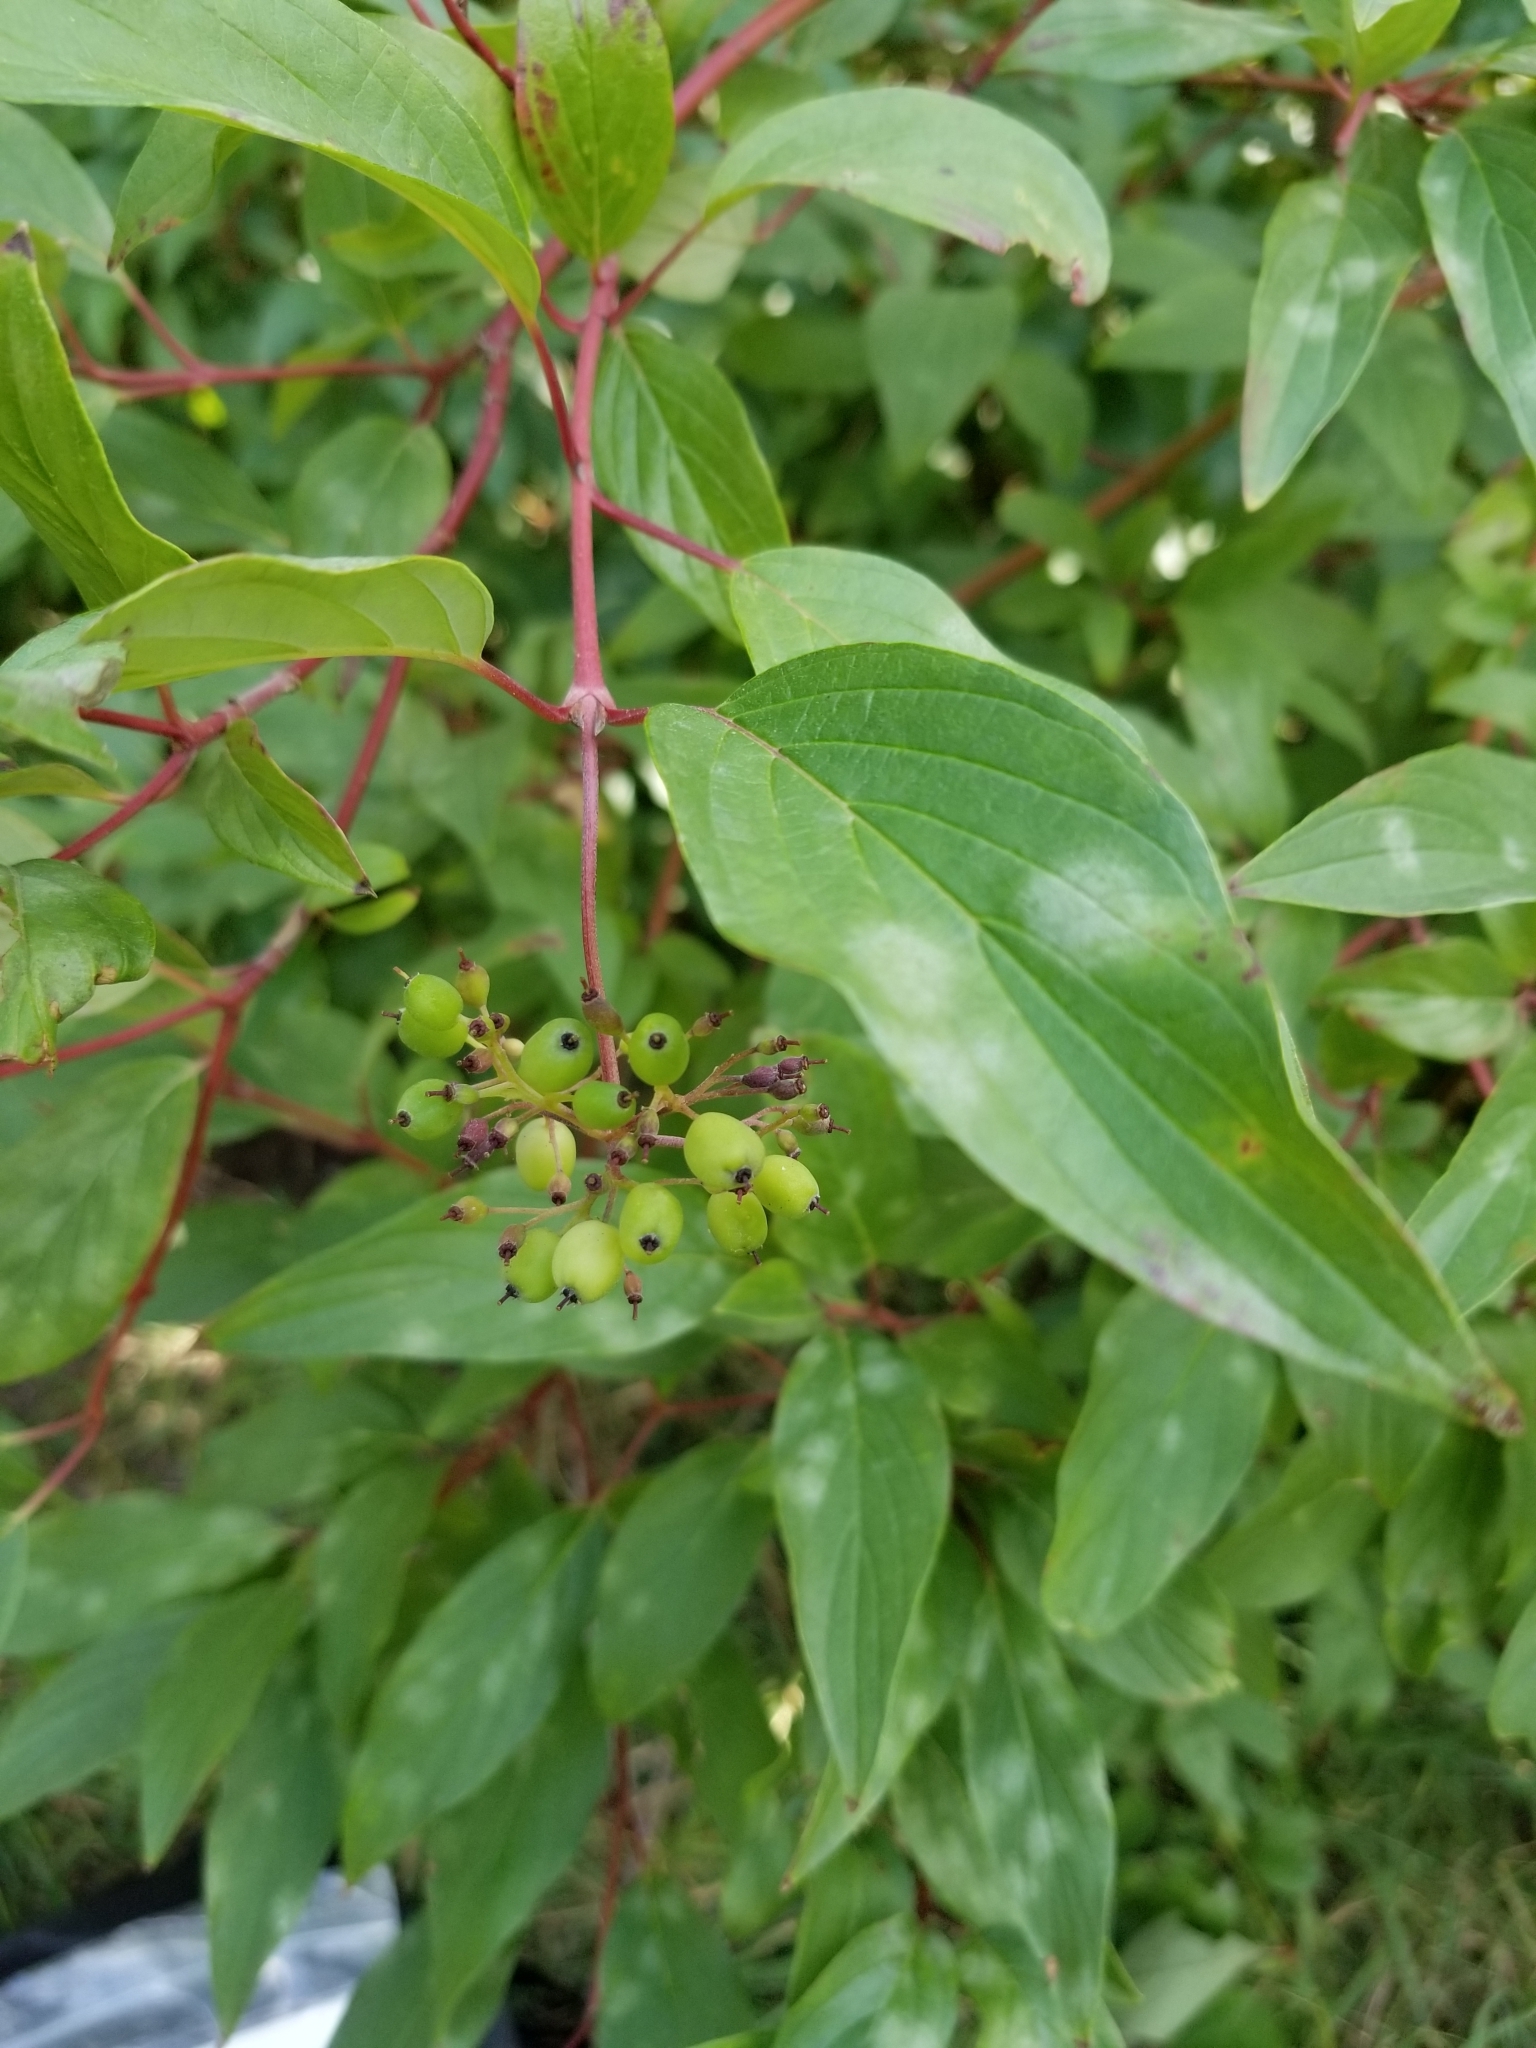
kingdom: Plantae
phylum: Tracheophyta
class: Magnoliopsida
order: Cornales
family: Cornaceae
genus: Cornus
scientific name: Cornus sericea
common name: Red-osier dogwood
